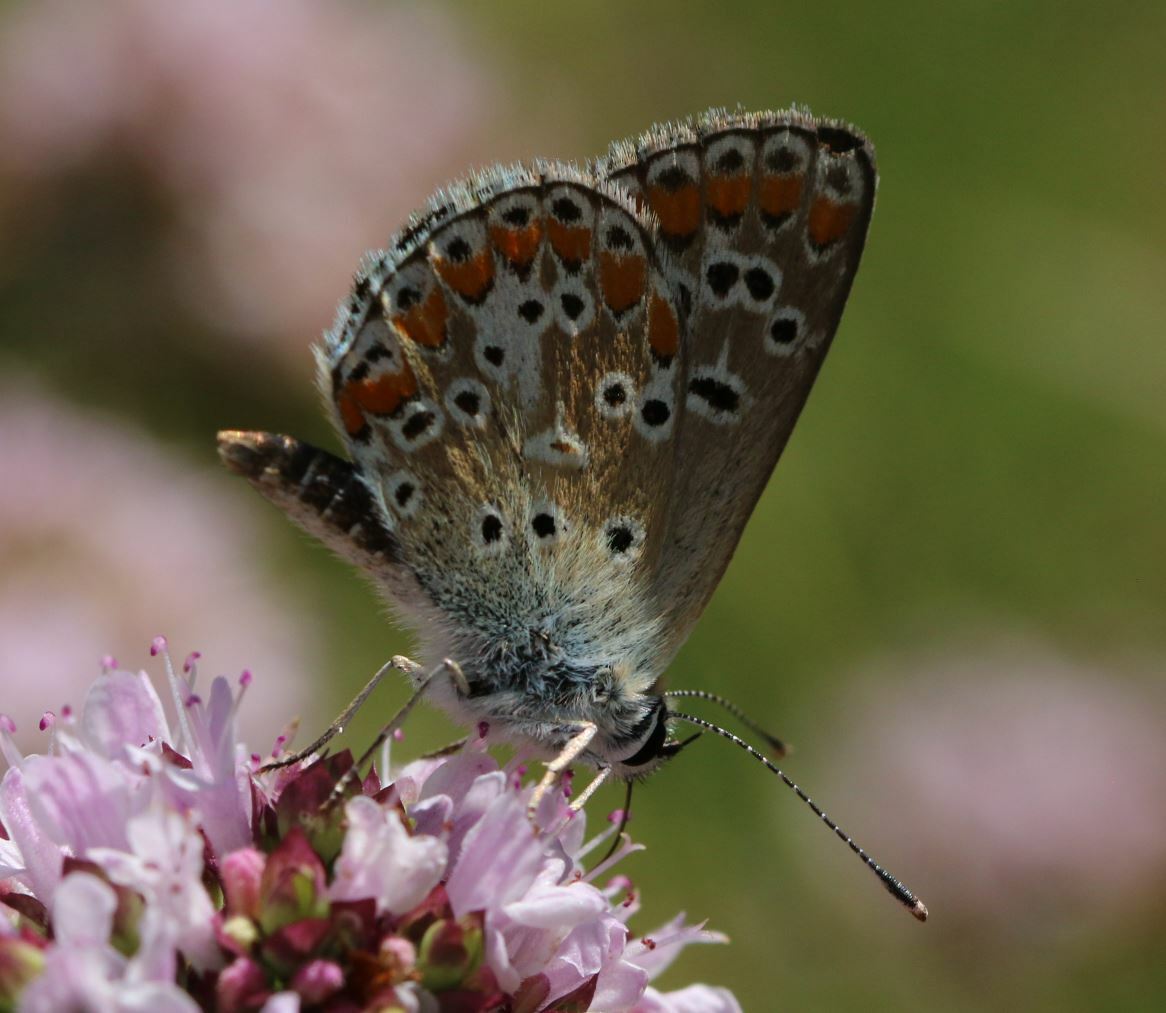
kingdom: Animalia
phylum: Arthropoda
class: Insecta
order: Lepidoptera
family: Lycaenidae
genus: Aricia
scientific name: Aricia agestis
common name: Brown argus
